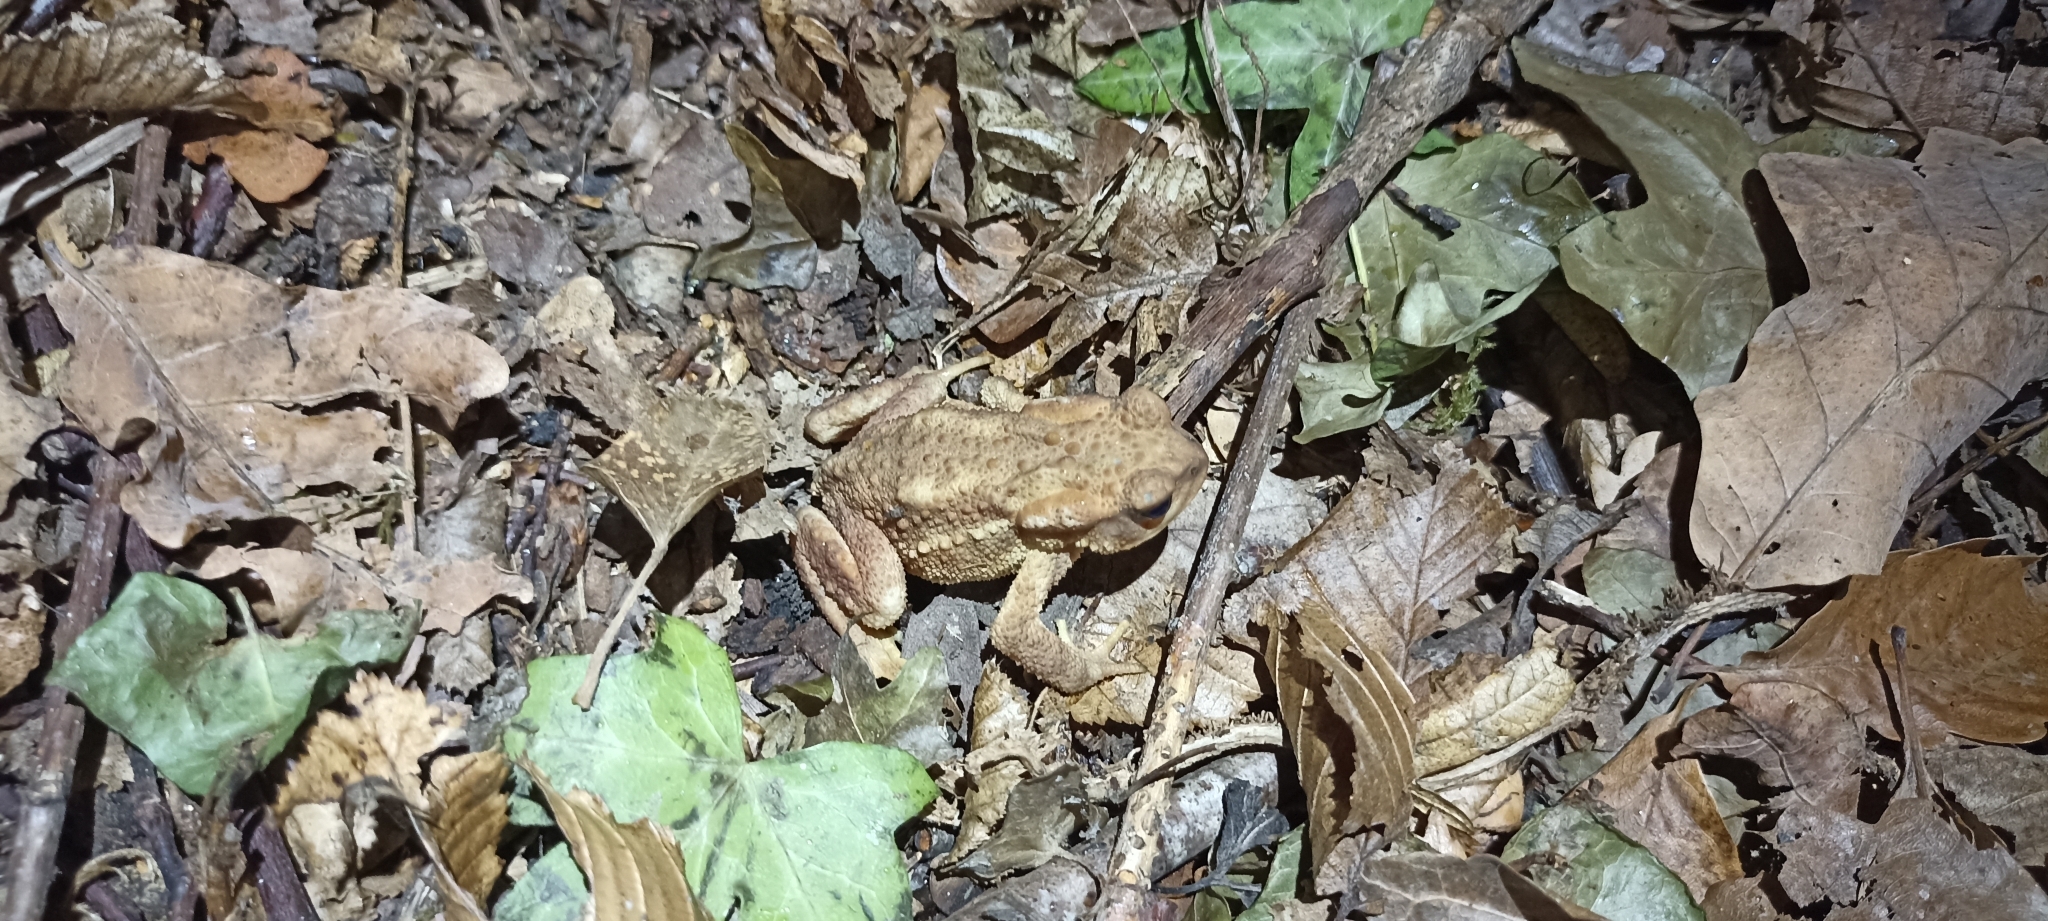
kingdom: Animalia
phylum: Chordata
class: Amphibia
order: Anura
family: Bufonidae
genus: Bufo
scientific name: Bufo spinosus
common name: Western common toad
